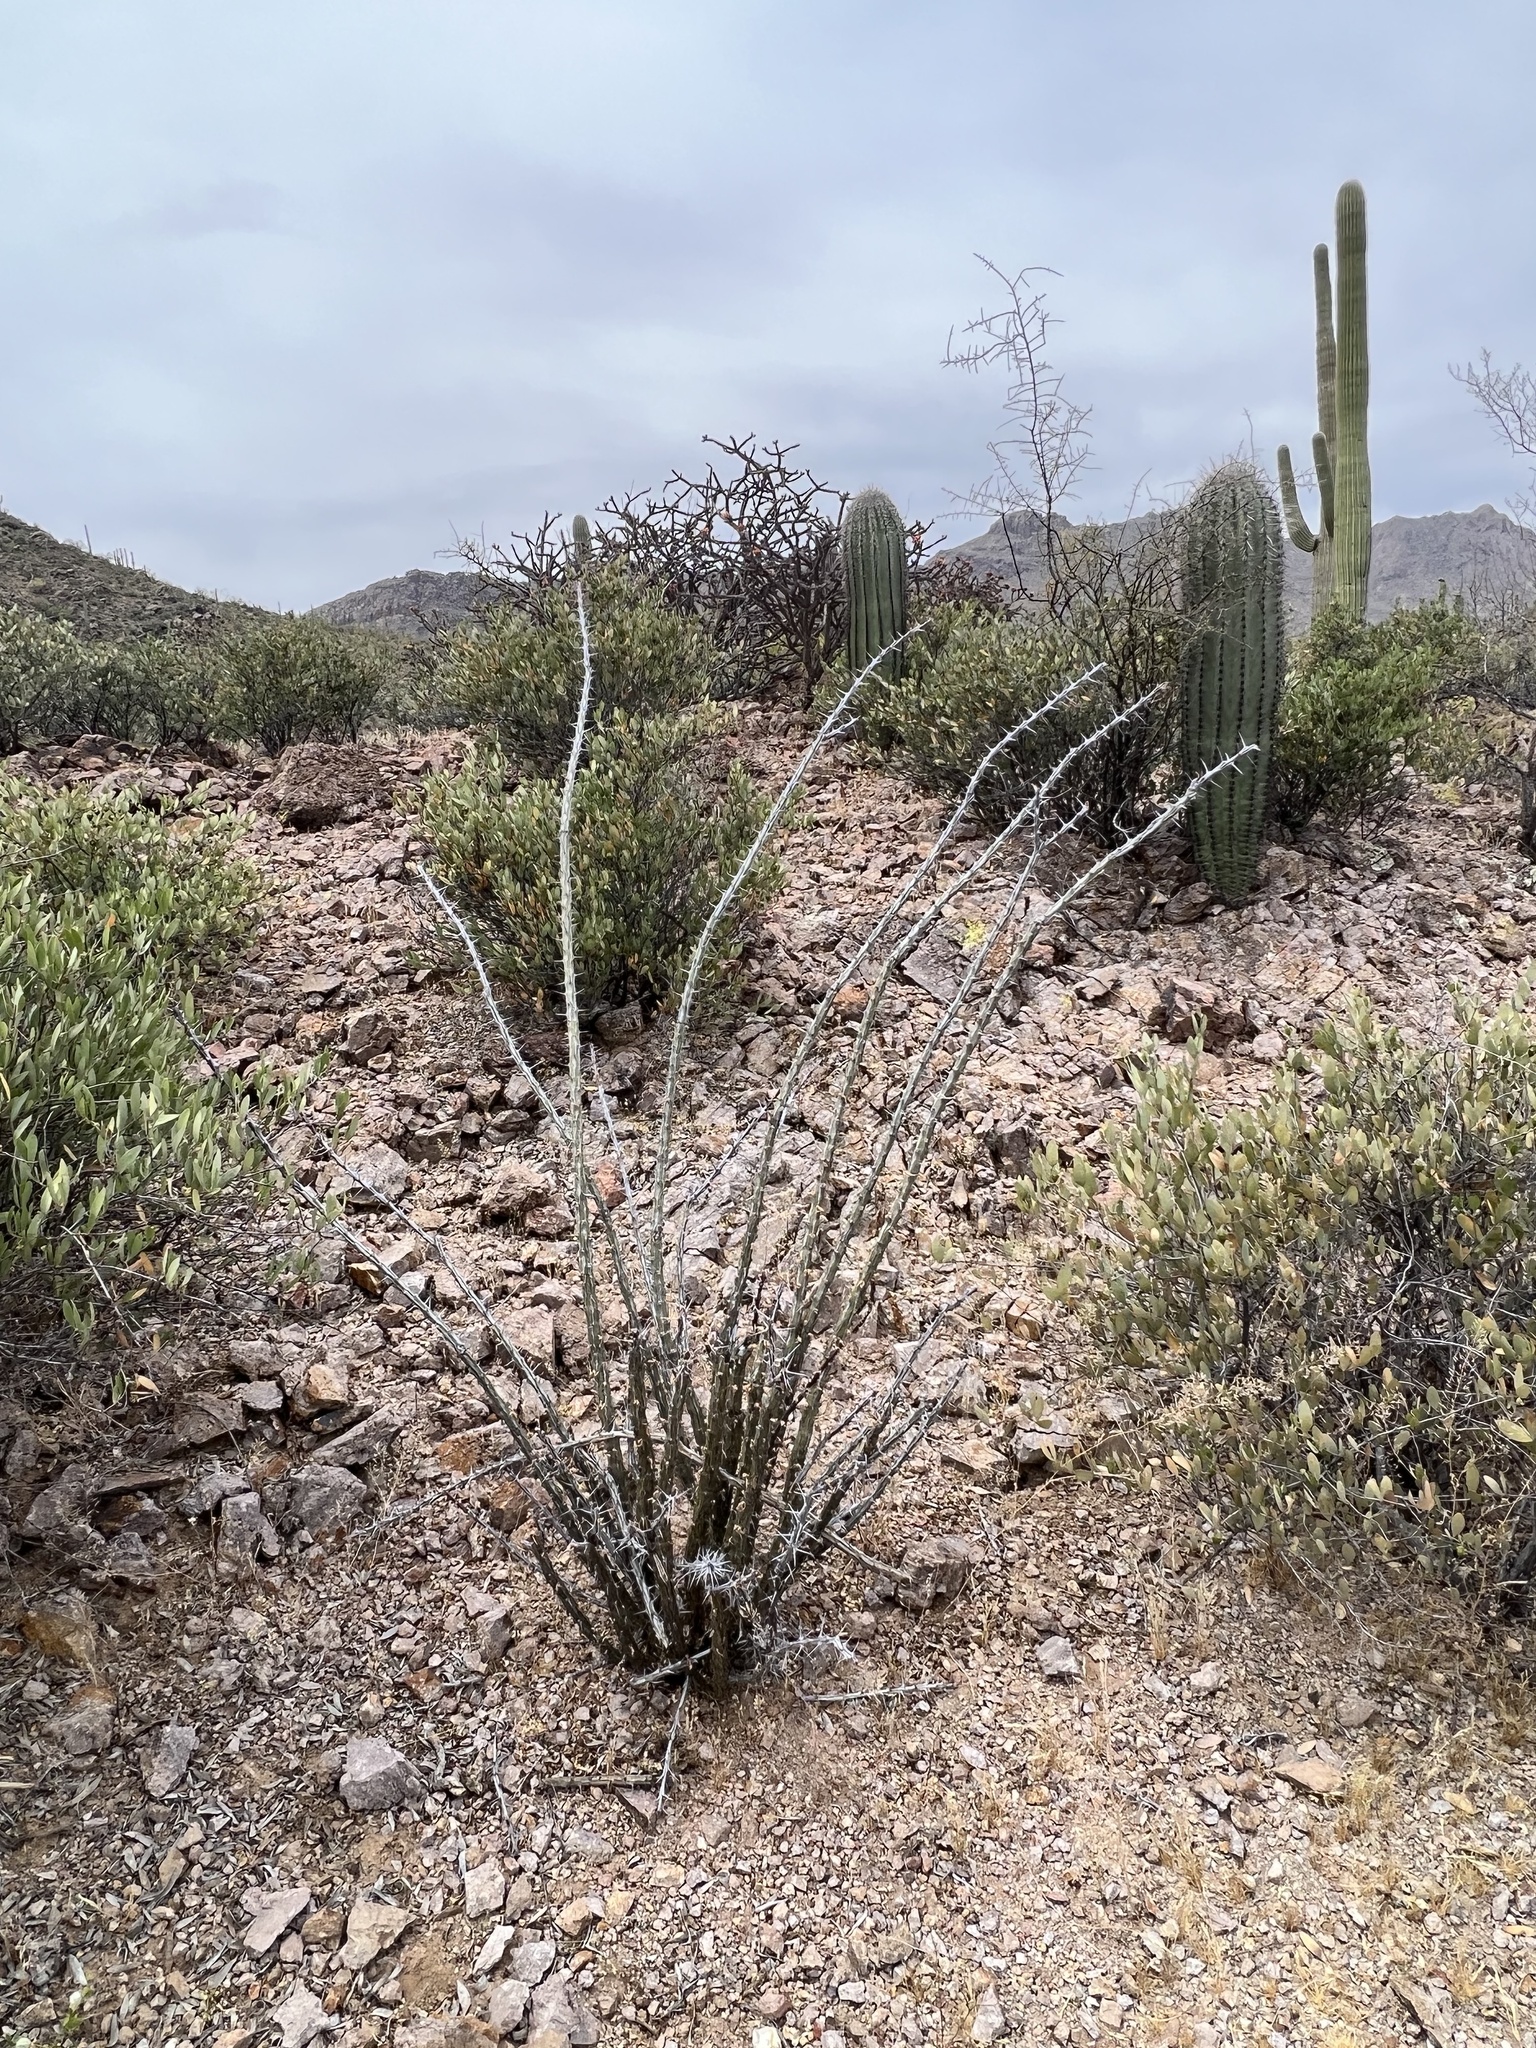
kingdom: Plantae
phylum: Tracheophyta
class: Magnoliopsida
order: Ericales
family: Fouquieriaceae
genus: Fouquieria
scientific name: Fouquieria splendens
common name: Vine-cactus
